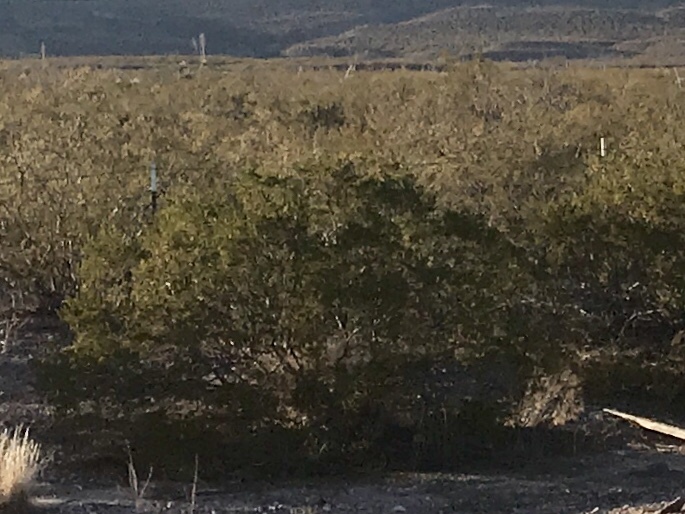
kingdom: Plantae
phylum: Tracheophyta
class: Magnoliopsida
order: Zygophyllales
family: Zygophyllaceae
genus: Larrea
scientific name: Larrea tridentata
